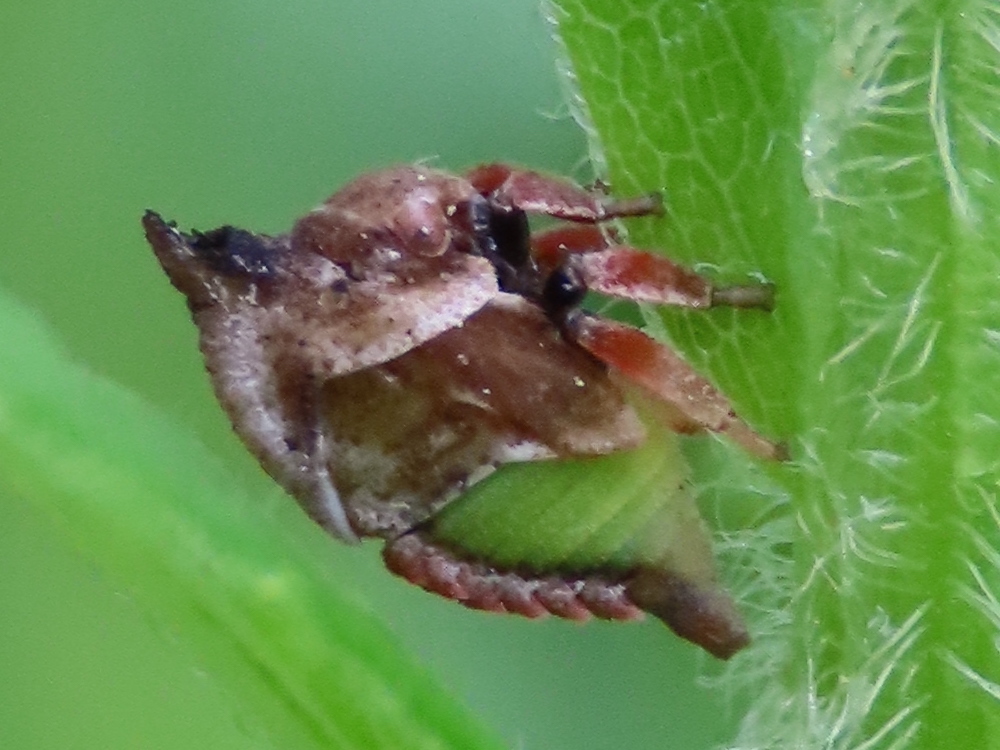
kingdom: Animalia
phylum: Arthropoda
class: Insecta
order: Hemiptera
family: Membracidae
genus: Enchenopa
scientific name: Enchenopa latipes
